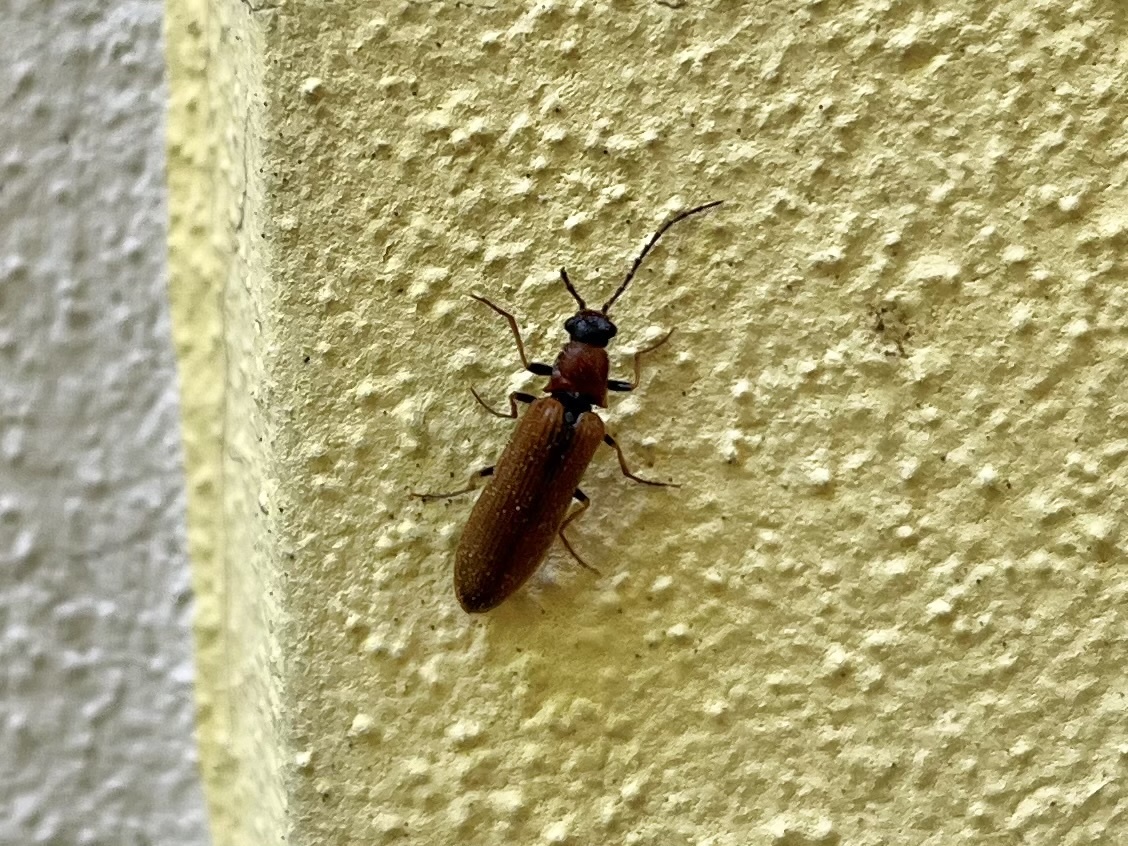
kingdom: Animalia
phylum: Arthropoda
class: Insecta
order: Coleoptera
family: Elateridae
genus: Denticollis
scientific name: Denticollis linearis
